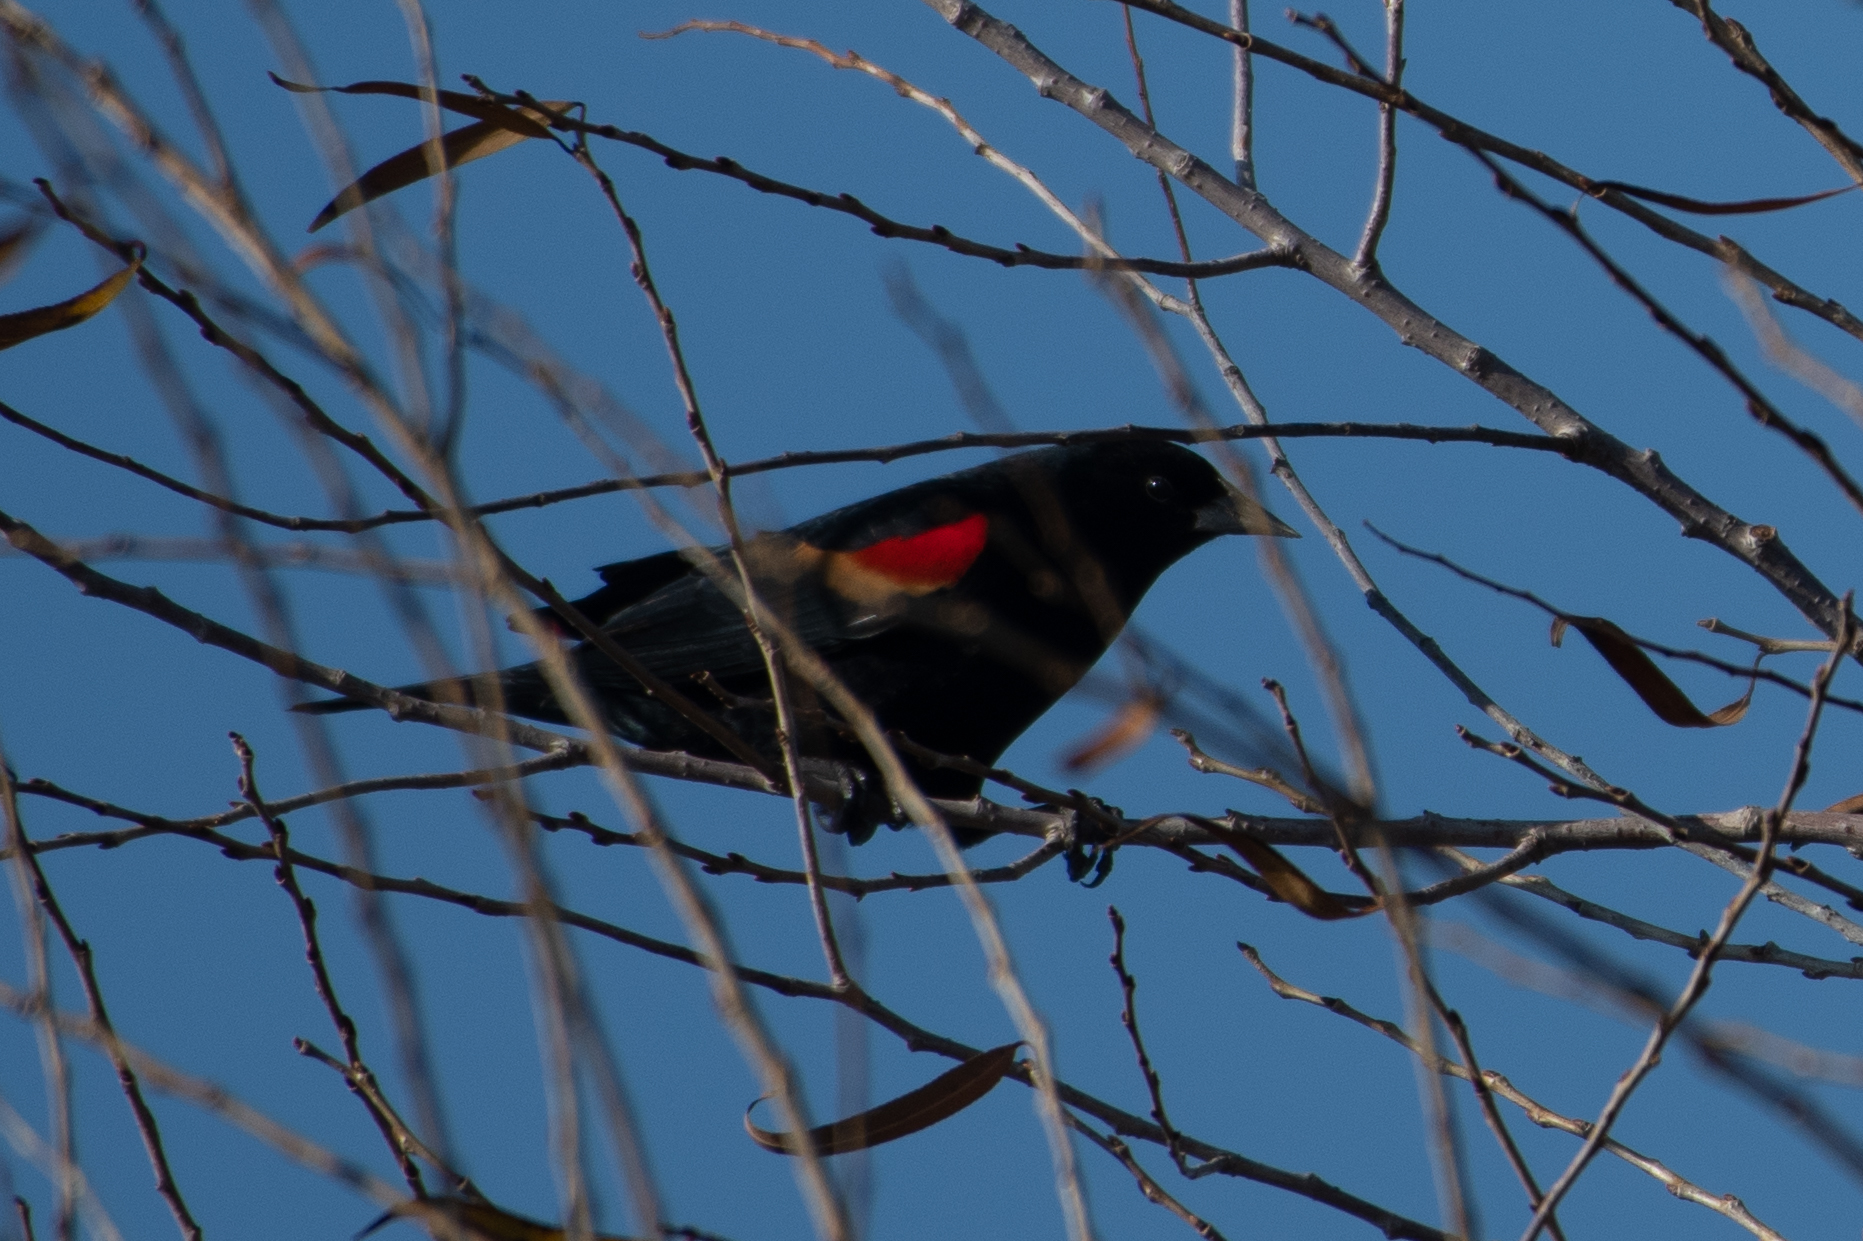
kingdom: Animalia
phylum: Chordata
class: Aves
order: Passeriformes
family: Icteridae
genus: Agelaius
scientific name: Agelaius phoeniceus
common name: Red-winged blackbird
